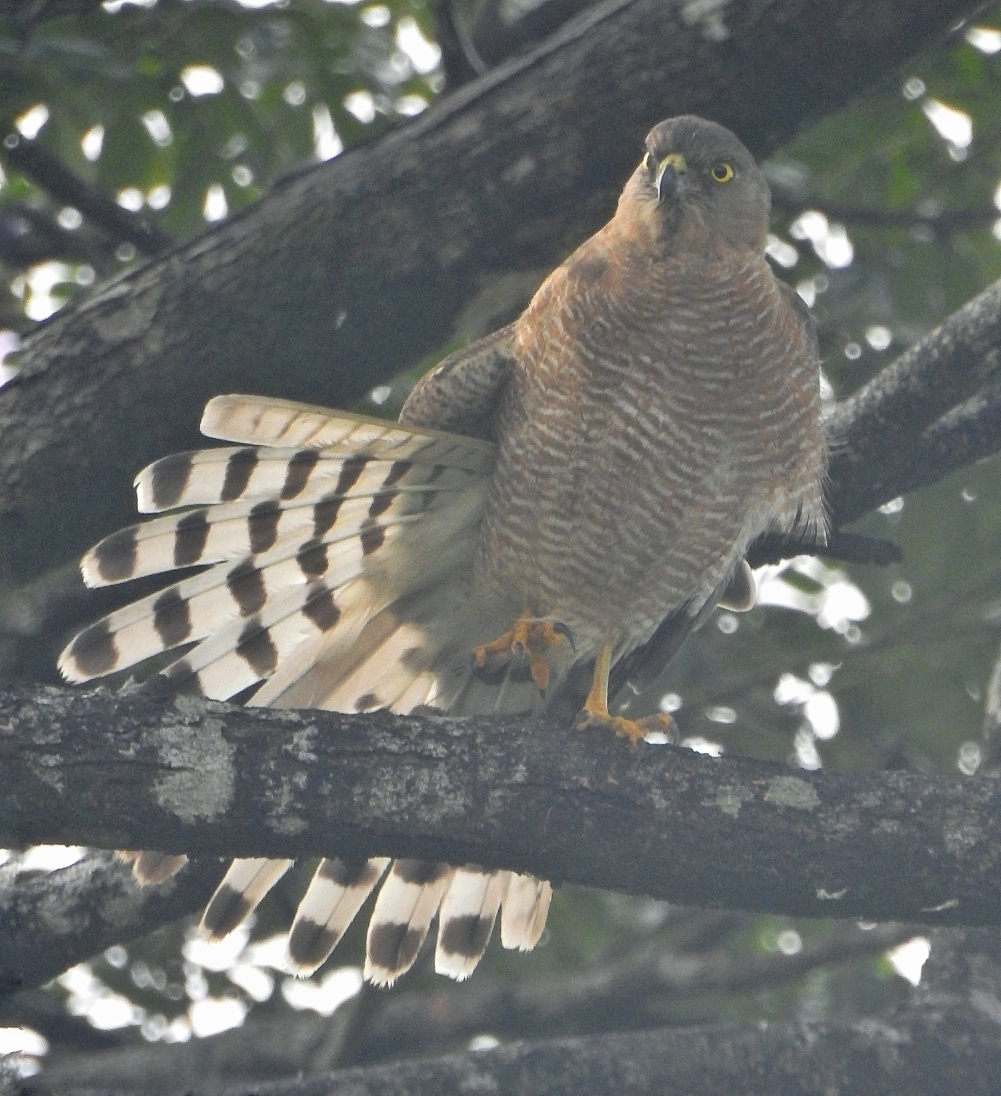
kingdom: Animalia
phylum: Chordata
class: Aves
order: Accipitriformes
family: Accipitridae
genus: Accipiter
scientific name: Accipiter badius
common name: Shikra
